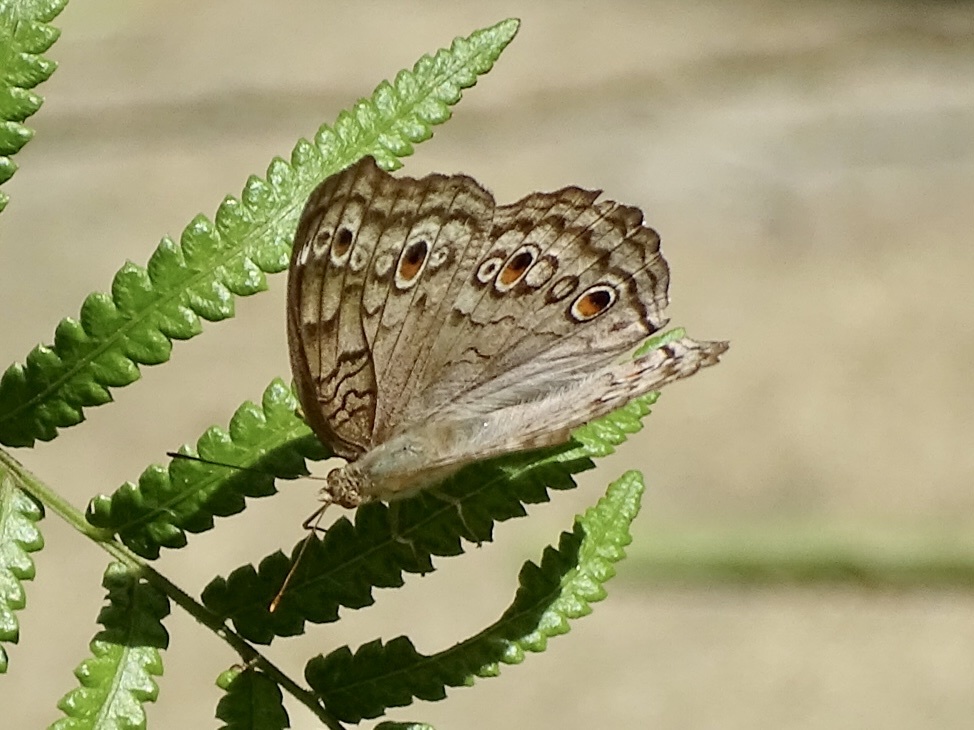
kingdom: Animalia
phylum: Arthropoda
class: Insecta
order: Lepidoptera
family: Nymphalidae
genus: Junonia
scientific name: Junonia atlites
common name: Grey pansy
